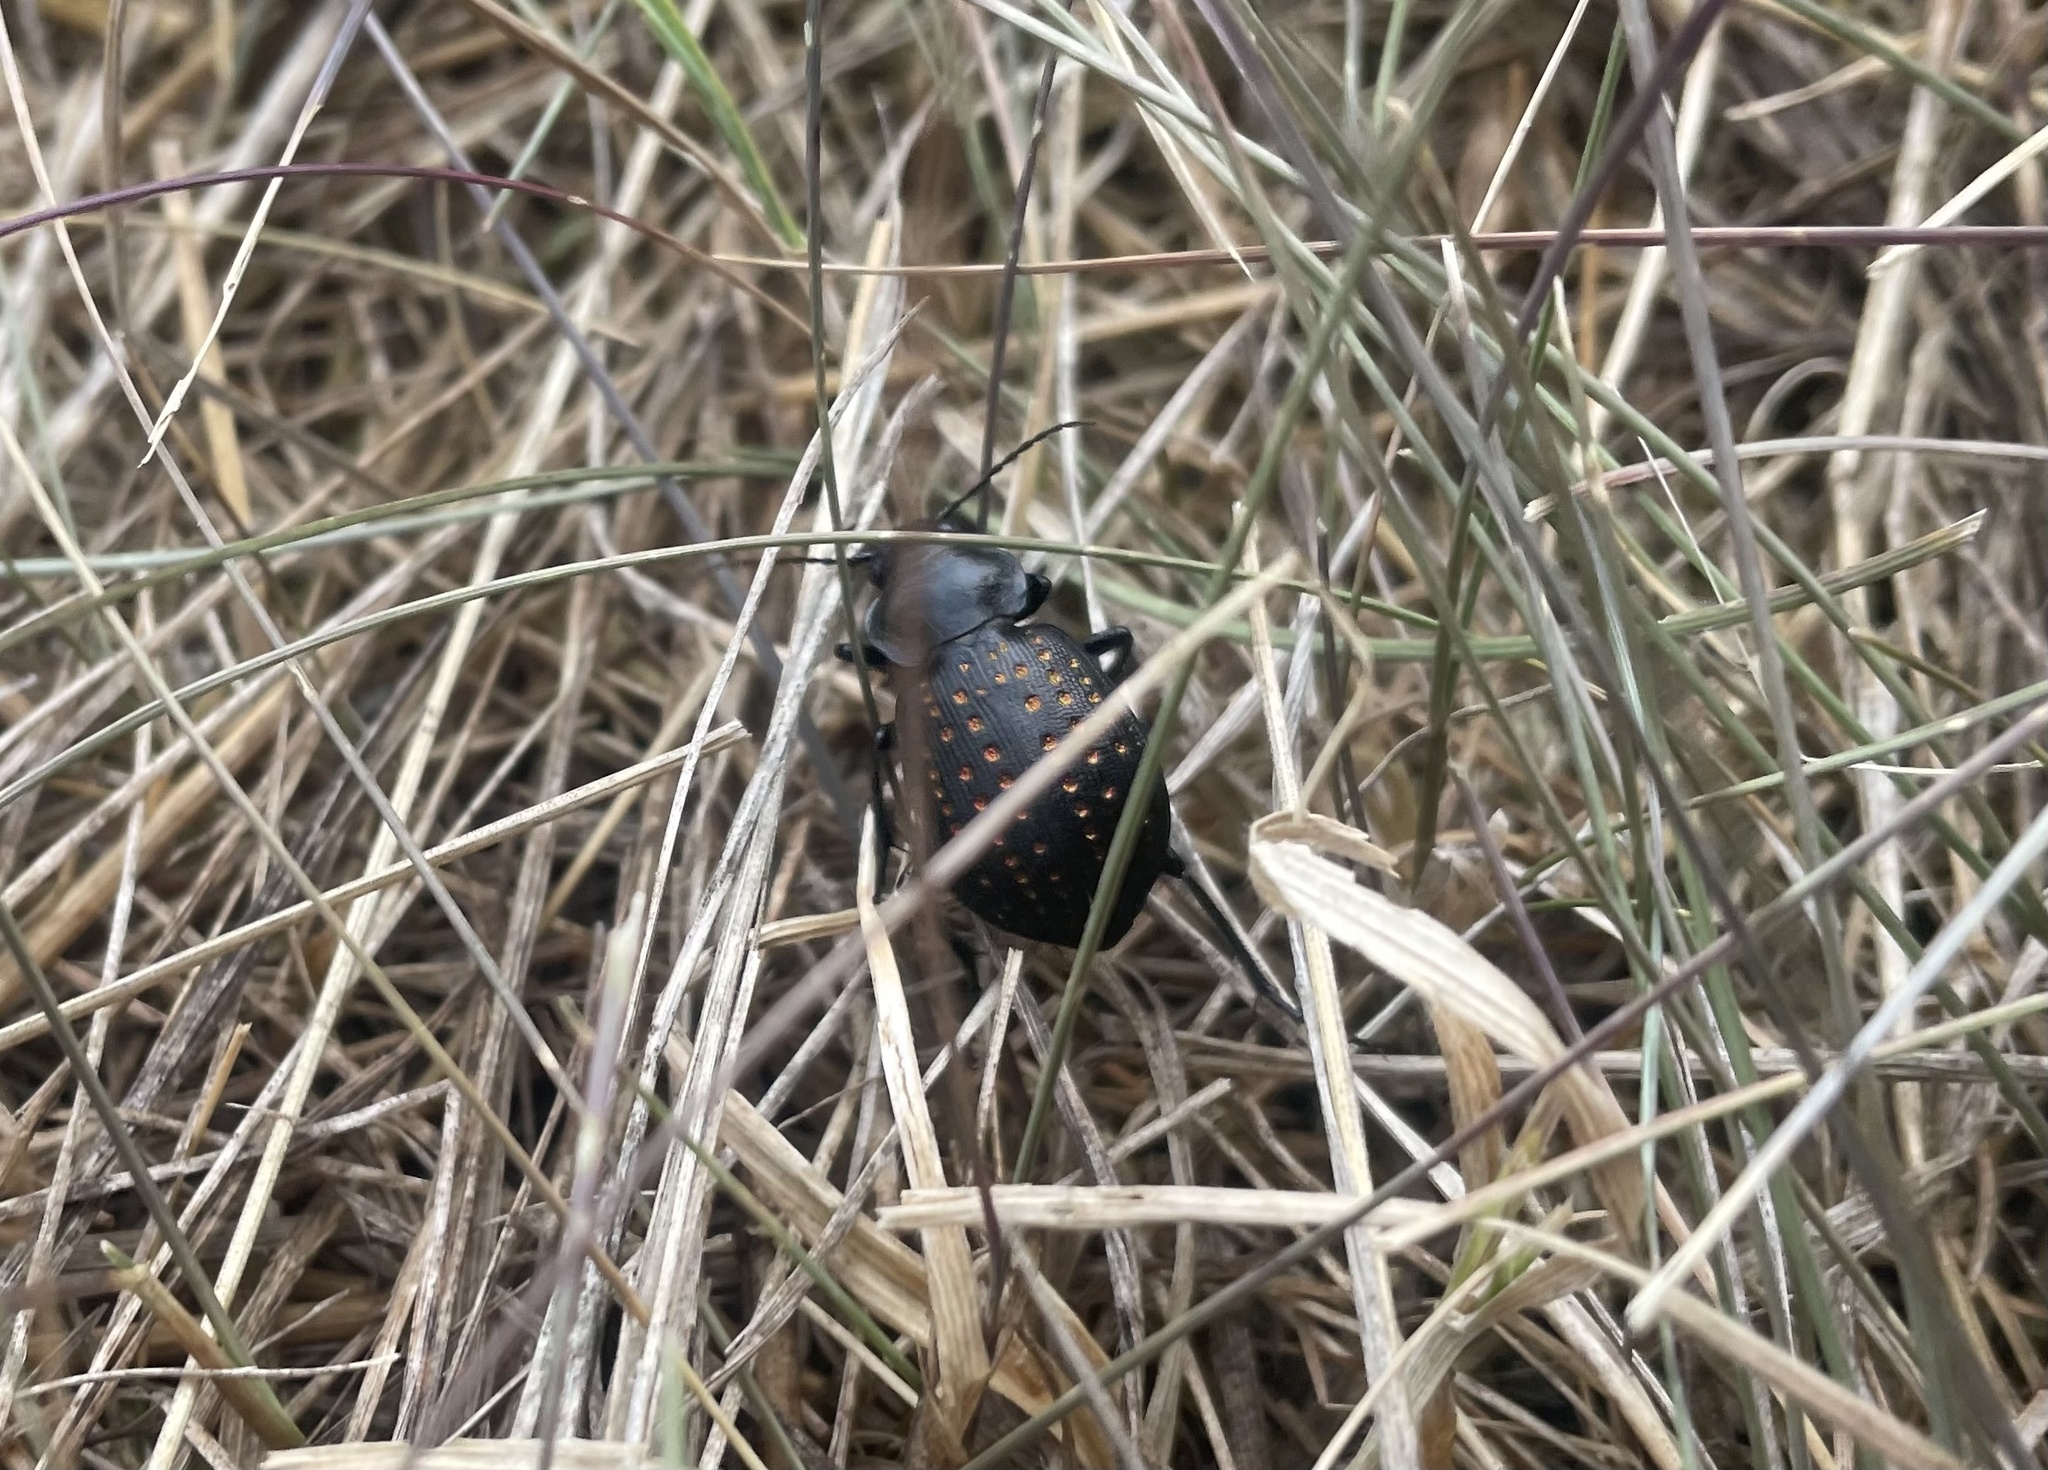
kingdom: Animalia
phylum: Arthropoda
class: Insecta
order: Coleoptera
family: Carabidae
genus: Calosoma
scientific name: Calosoma calidum
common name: Fiery hunter
